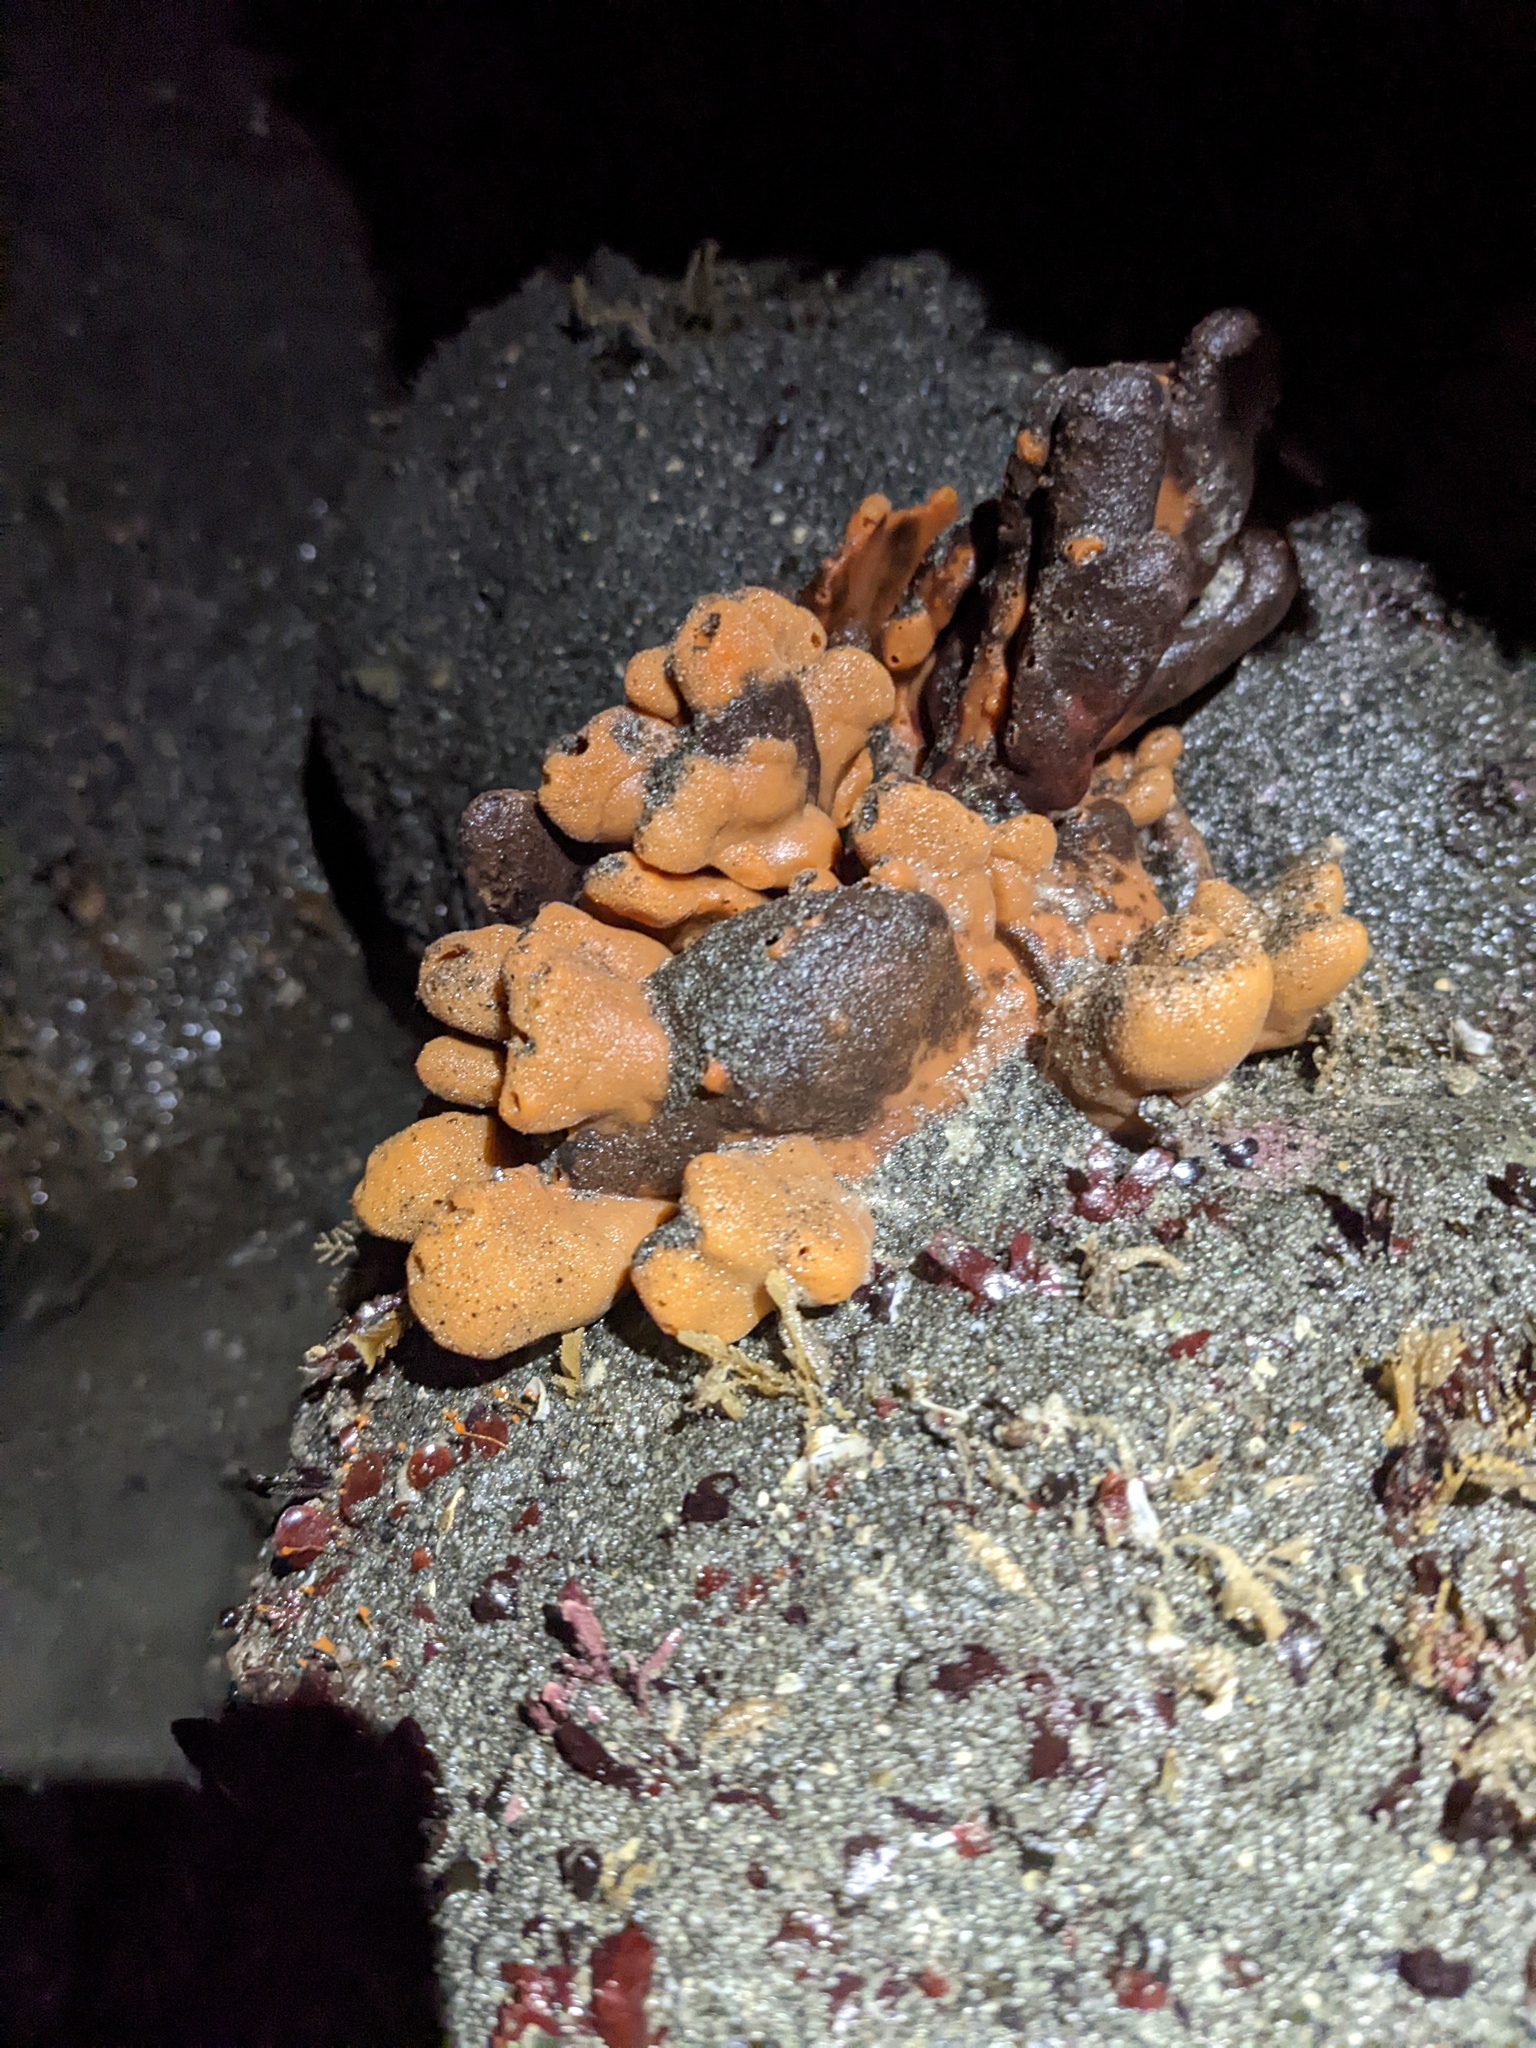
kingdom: Animalia
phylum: Porifera
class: Demospongiae
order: Poecilosclerida
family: Isodictyidae
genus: Isodictya
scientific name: Isodictya rigida
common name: Orange finger sponge
